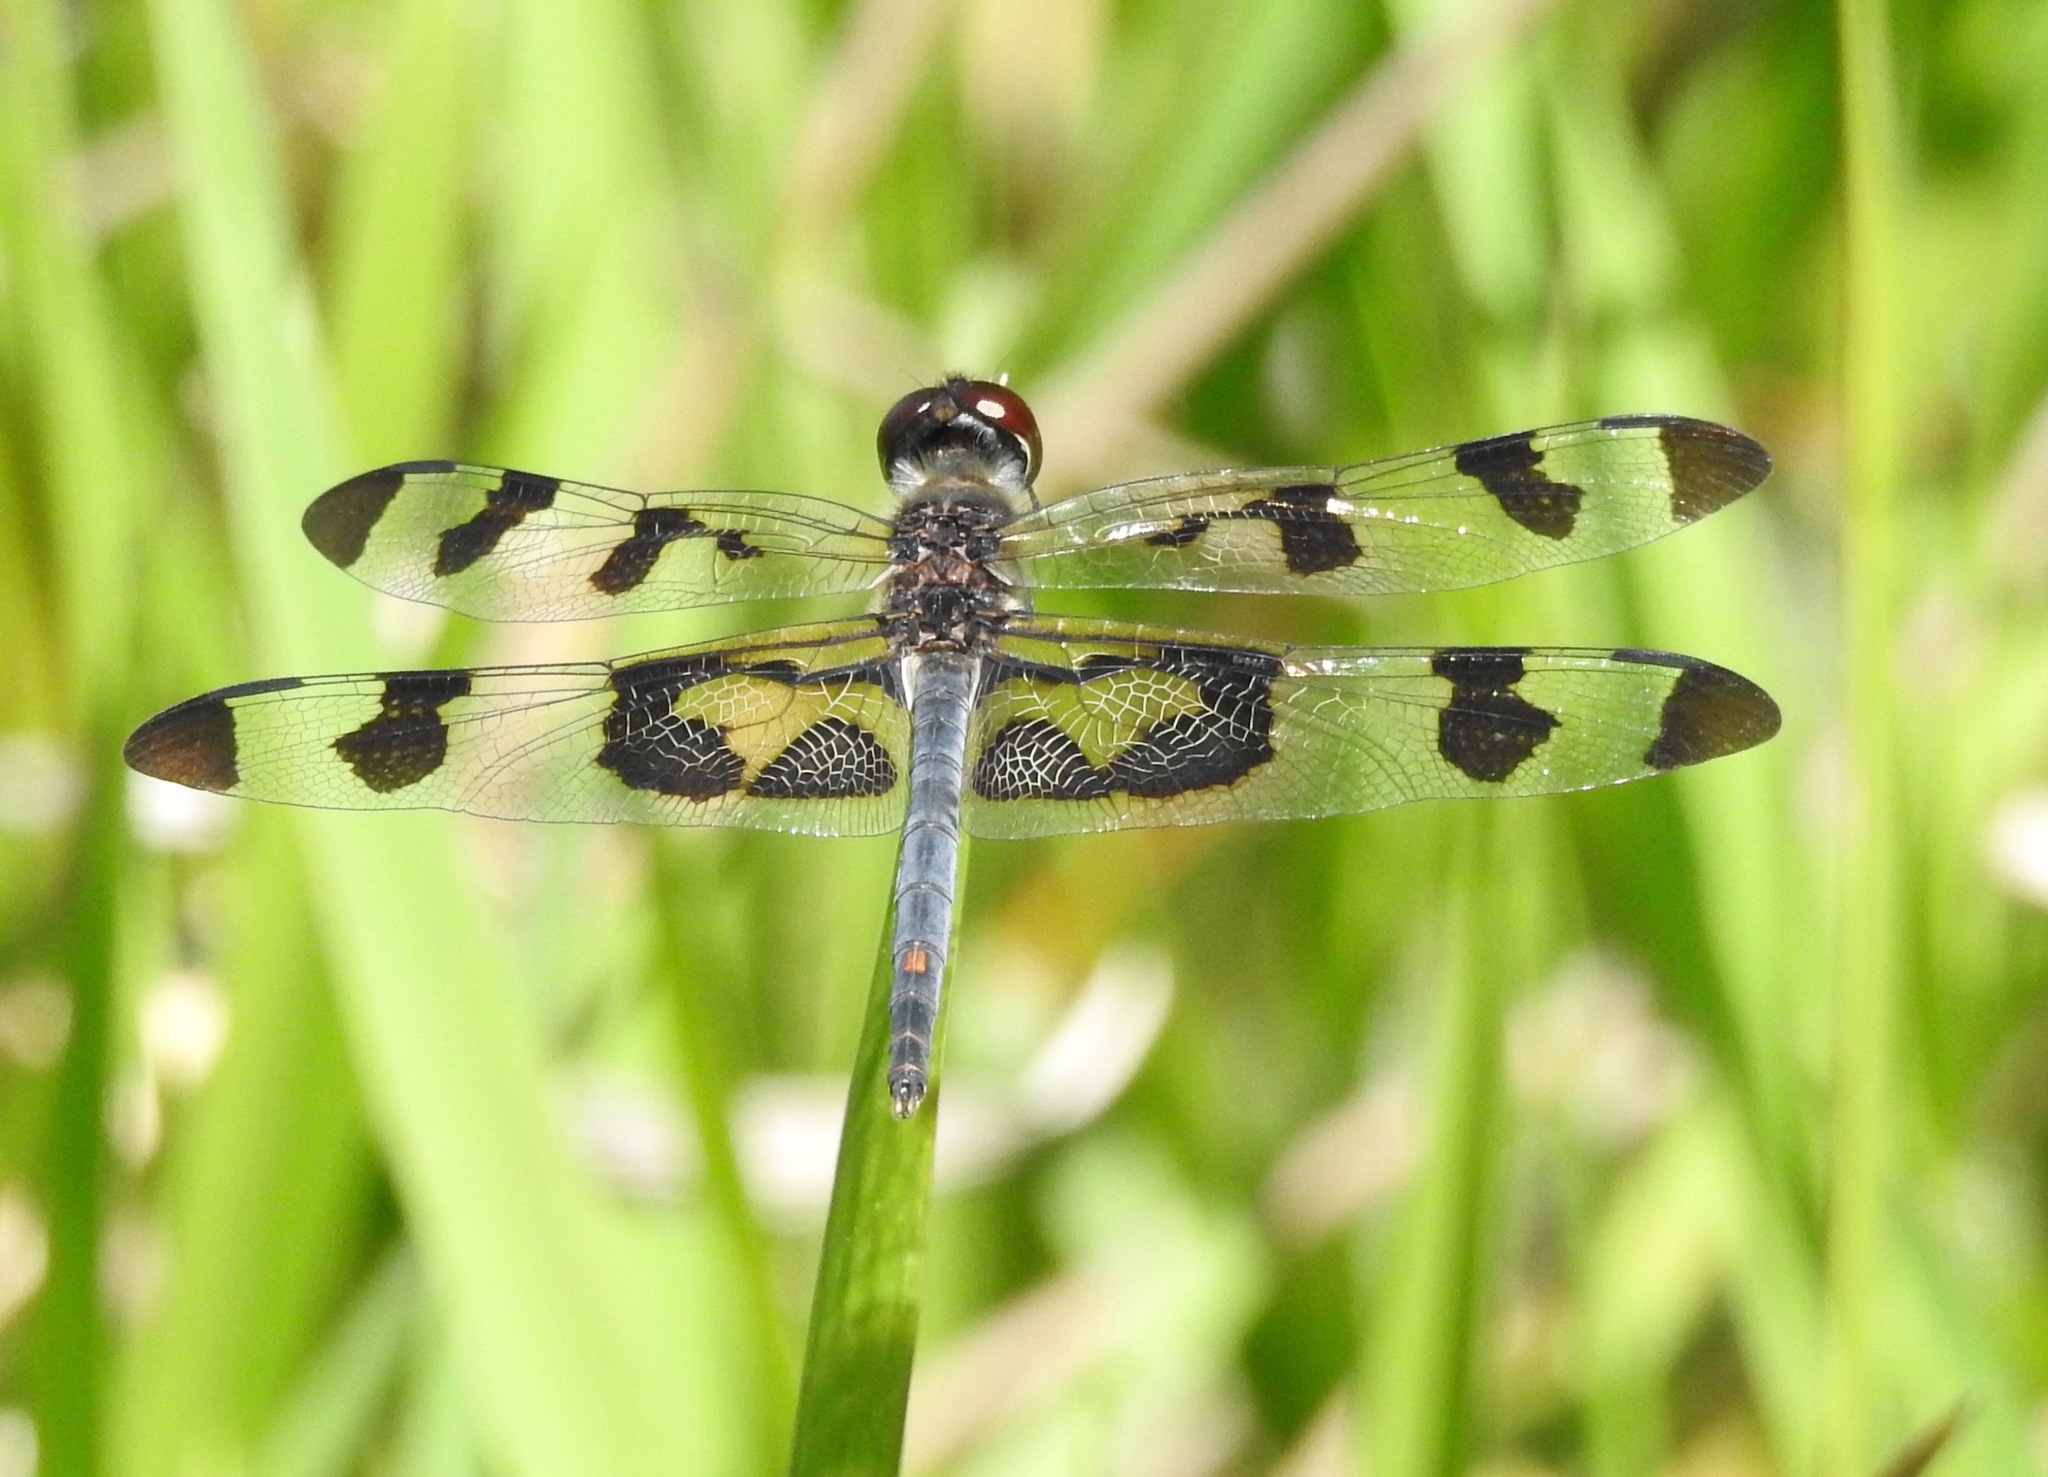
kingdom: Animalia
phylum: Arthropoda
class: Insecta
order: Odonata
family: Libellulidae
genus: Celithemis
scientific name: Celithemis fasciata
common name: Banded pennant
